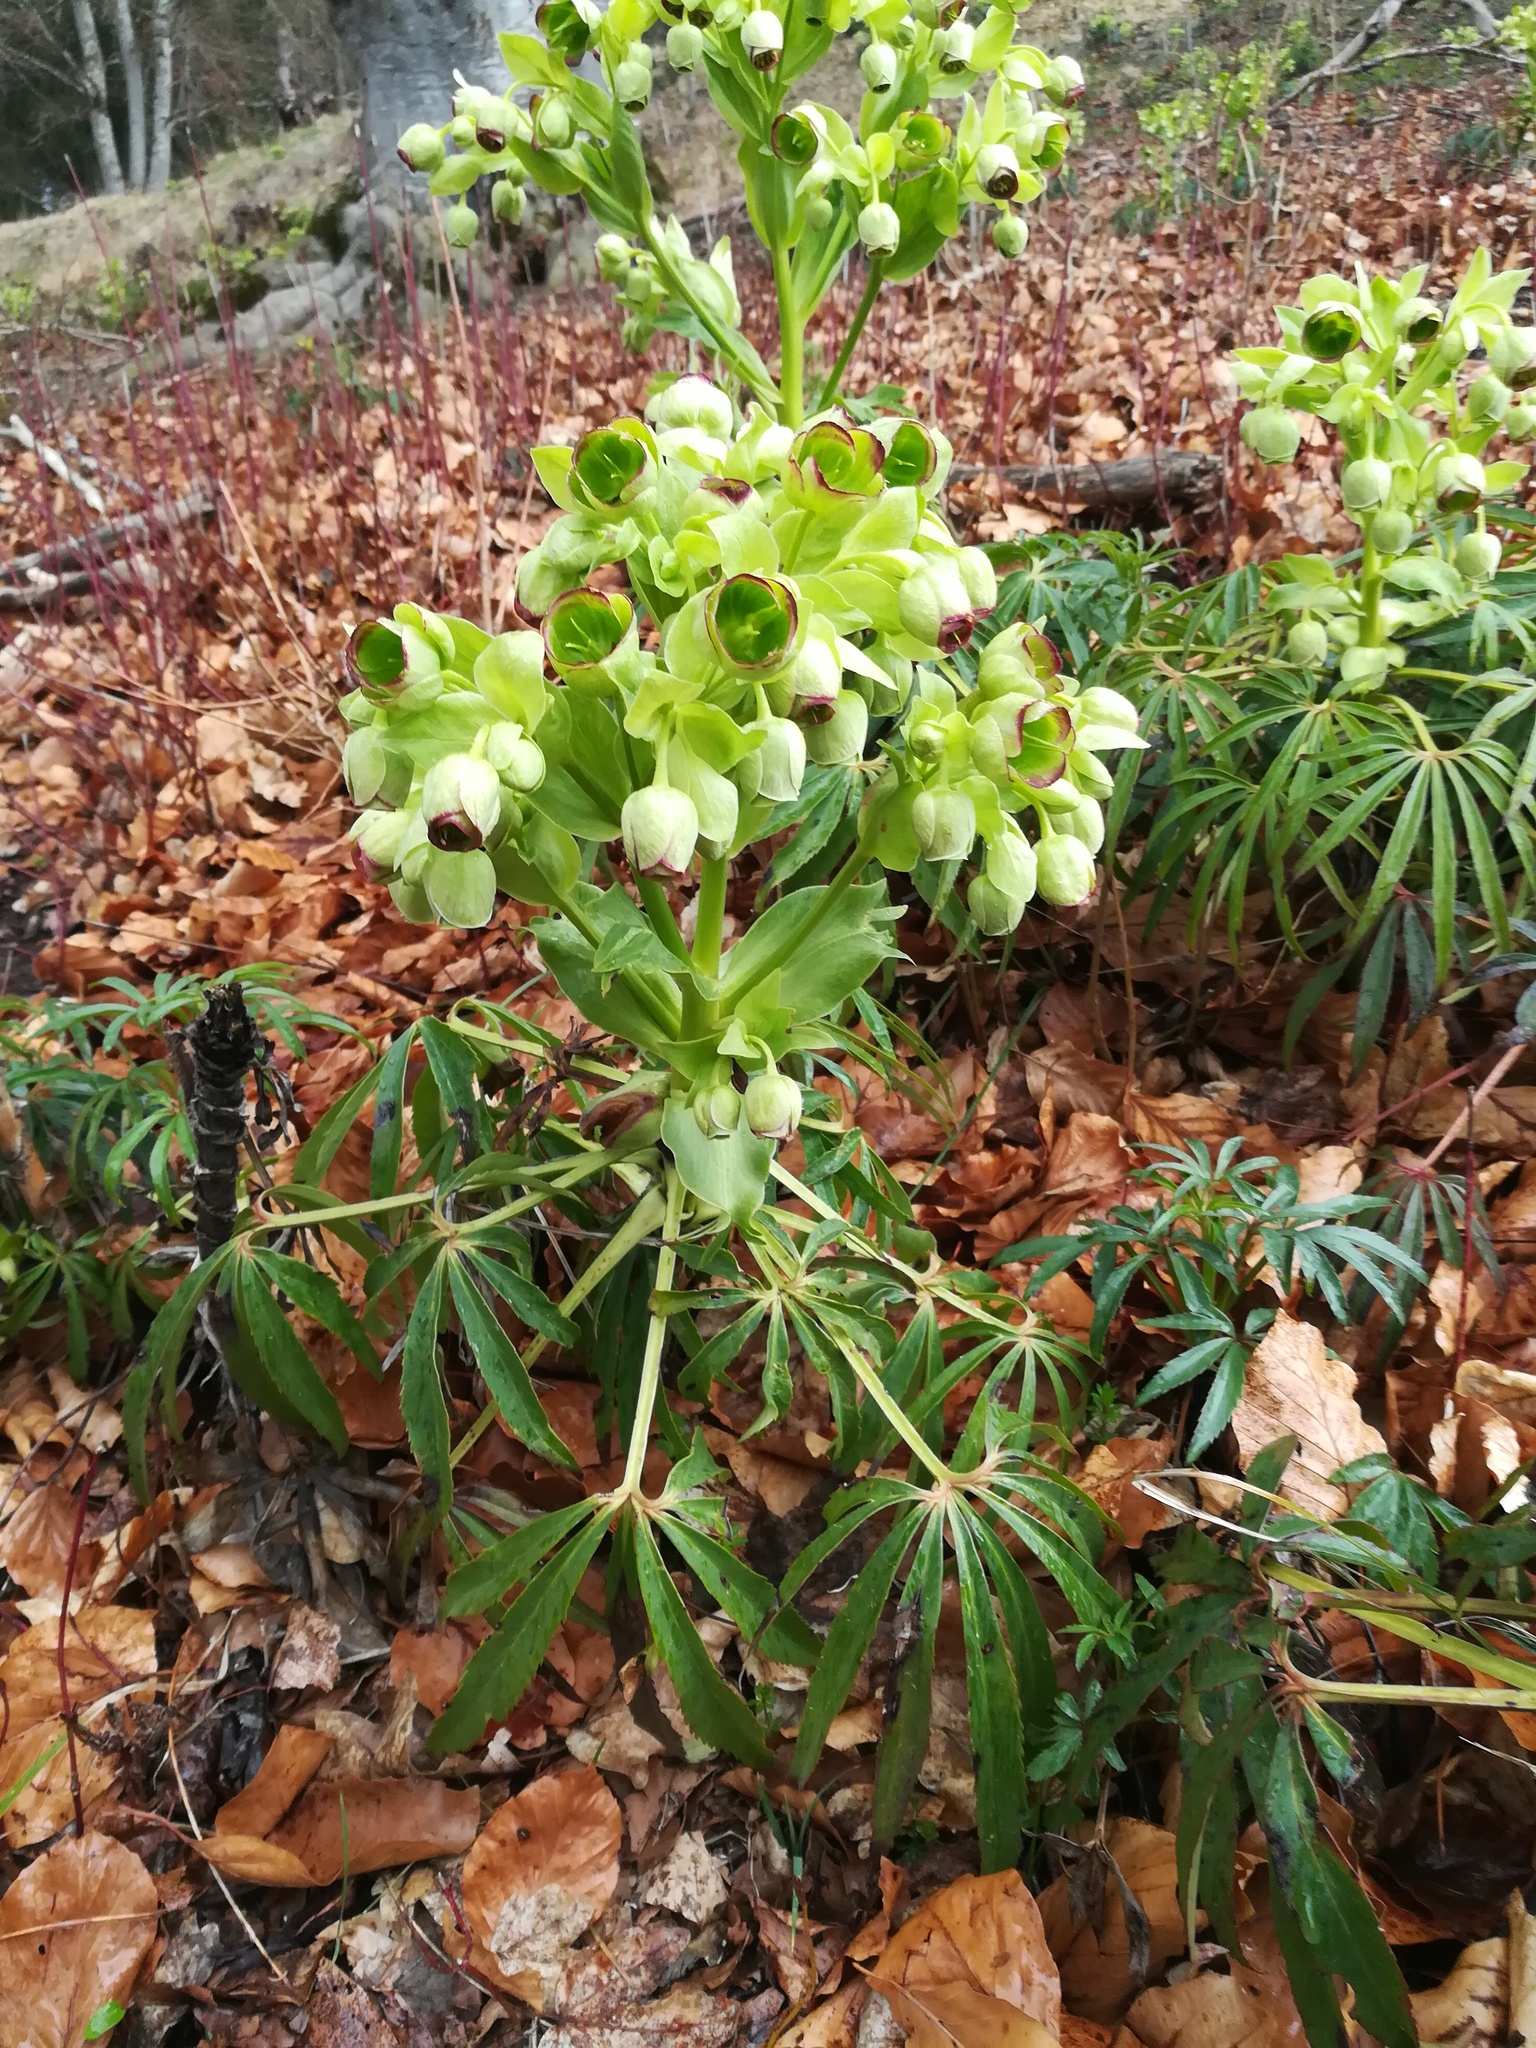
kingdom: Plantae
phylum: Tracheophyta
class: Magnoliopsida
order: Ranunculales
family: Ranunculaceae
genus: Helleborus
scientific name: Helleborus foetidus
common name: Stinking hellebore
